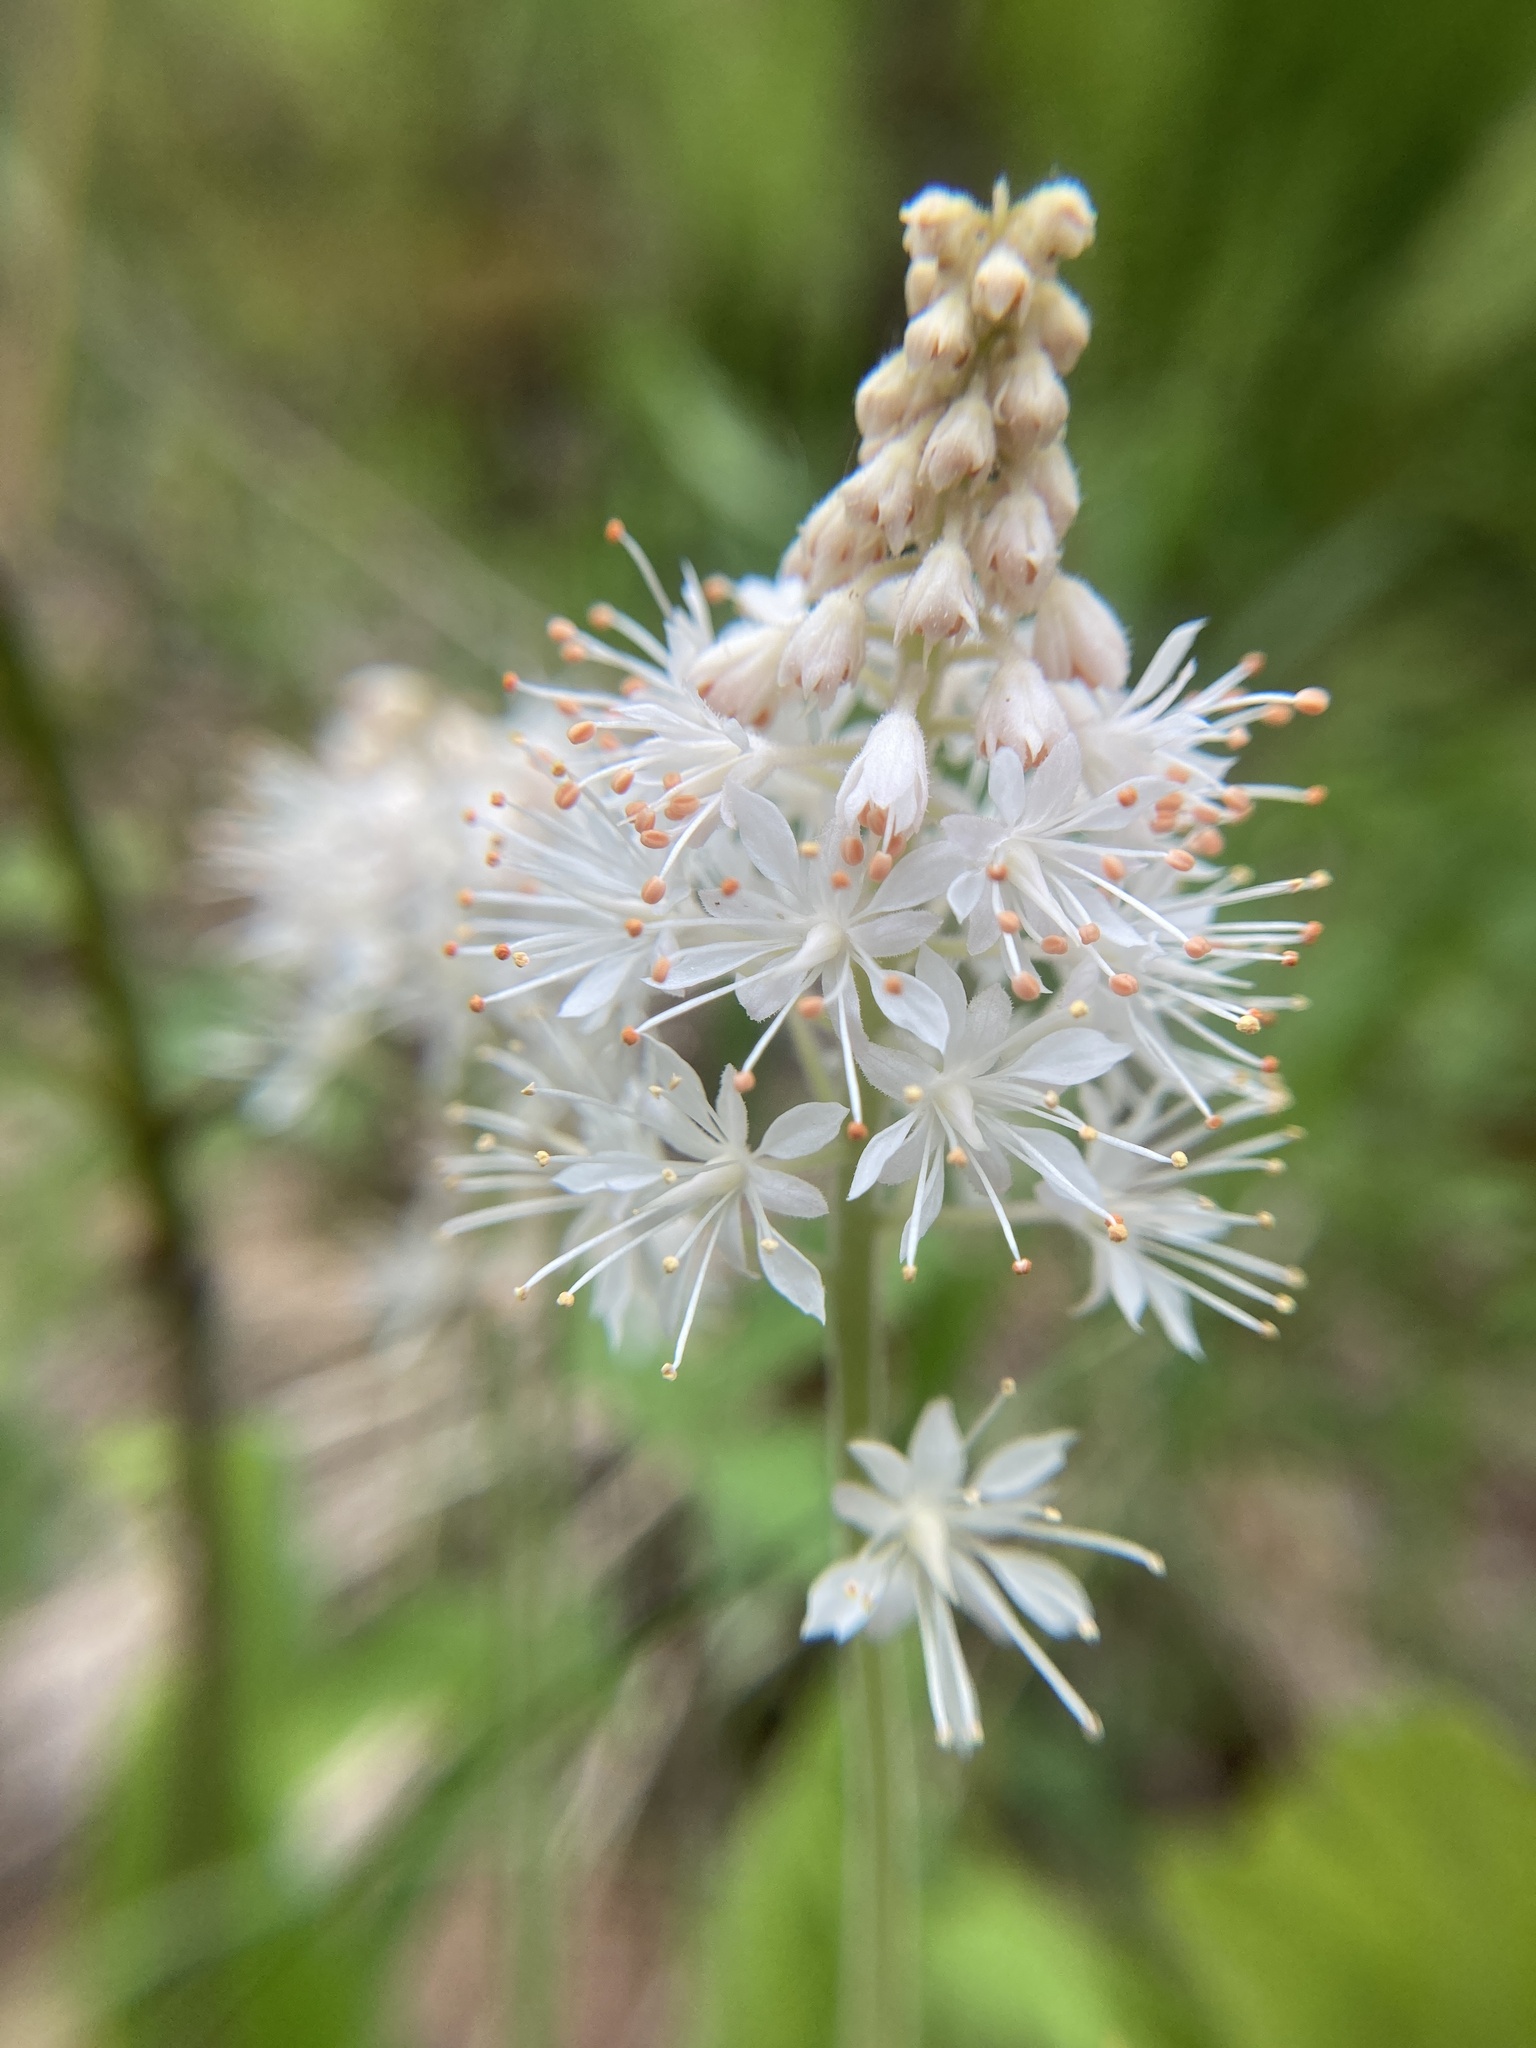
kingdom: Plantae
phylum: Tracheophyta
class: Magnoliopsida
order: Saxifragales
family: Saxifragaceae
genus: Tiarella
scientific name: Tiarella stolonifera
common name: Stoloniferous foamflower
